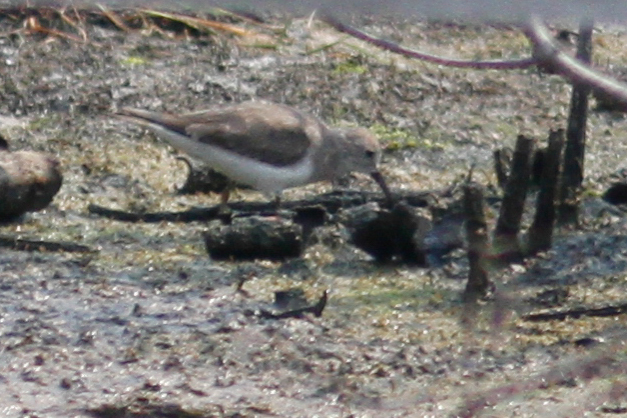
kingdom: Animalia
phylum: Chordata
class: Aves
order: Charadriiformes
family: Scolopacidae
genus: Calidris
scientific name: Calidris temminckii
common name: Temminck's stint
